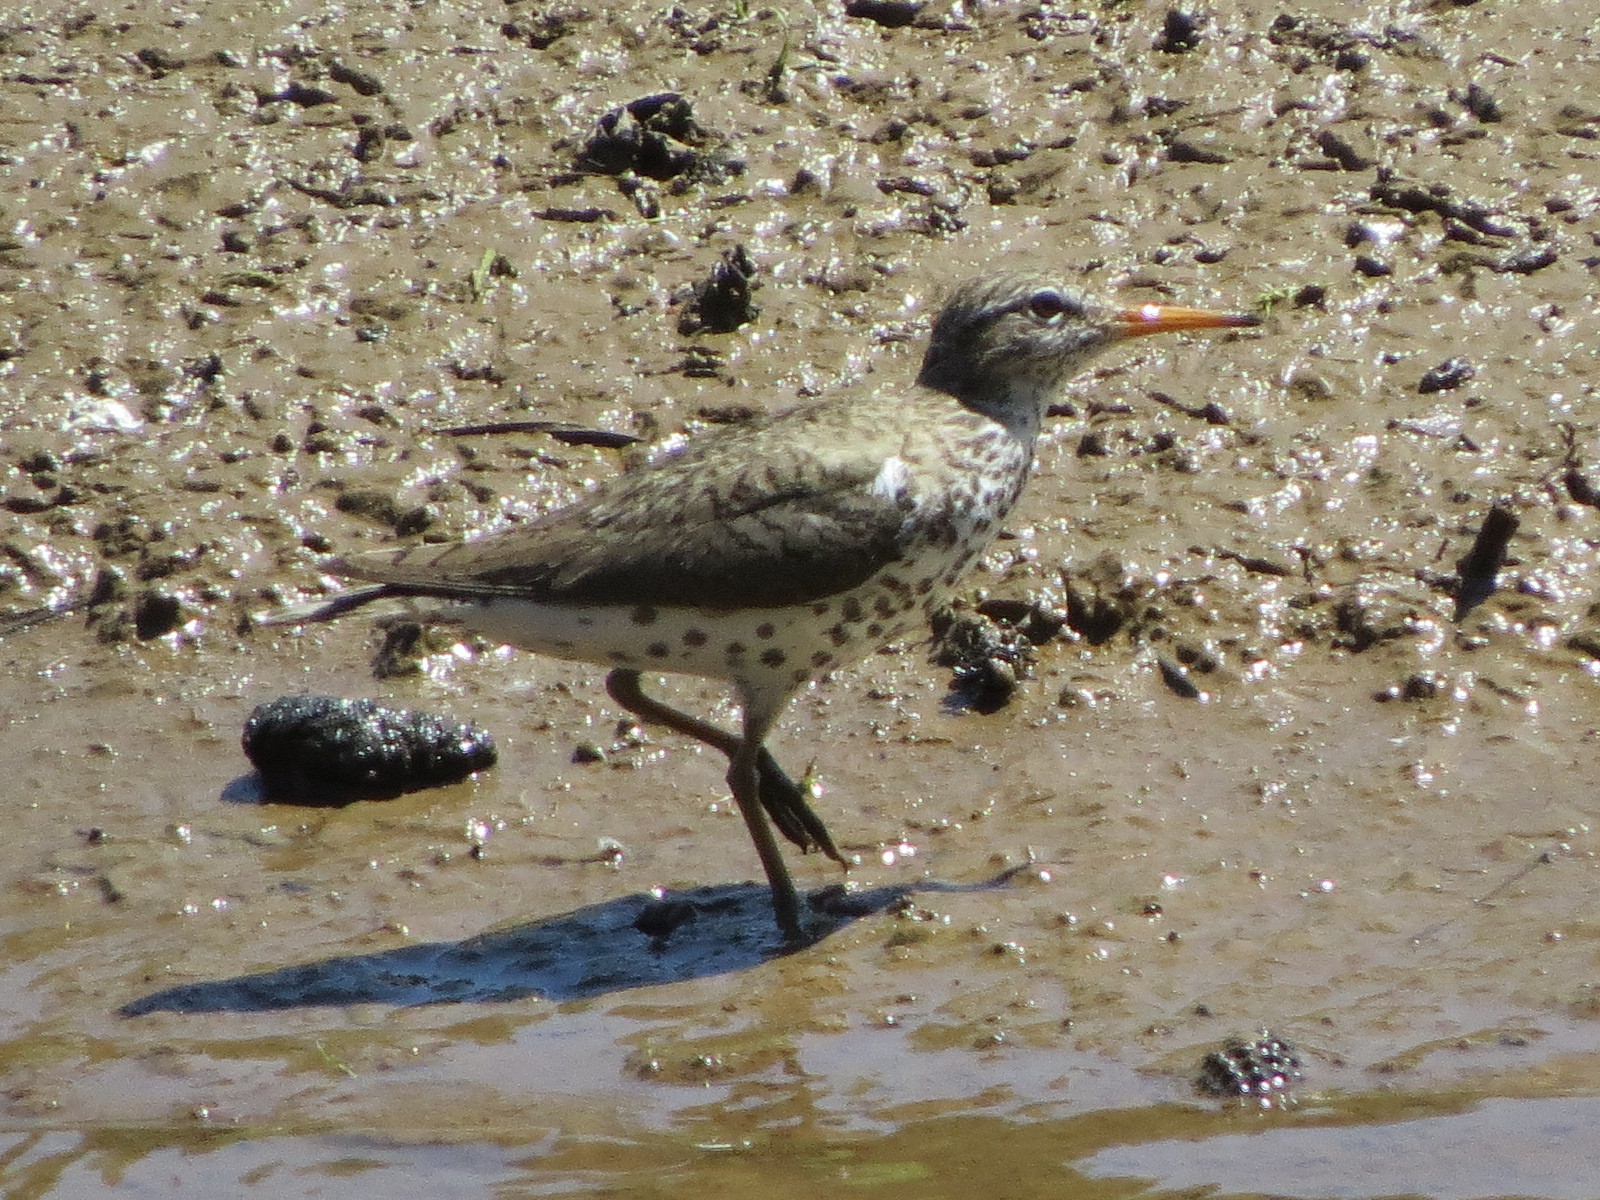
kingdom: Animalia
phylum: Chordata
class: Aves
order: Charadriiformes
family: Scolopacidae
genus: Actitis
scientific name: Actitis macularius
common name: Spotted sandpiper
